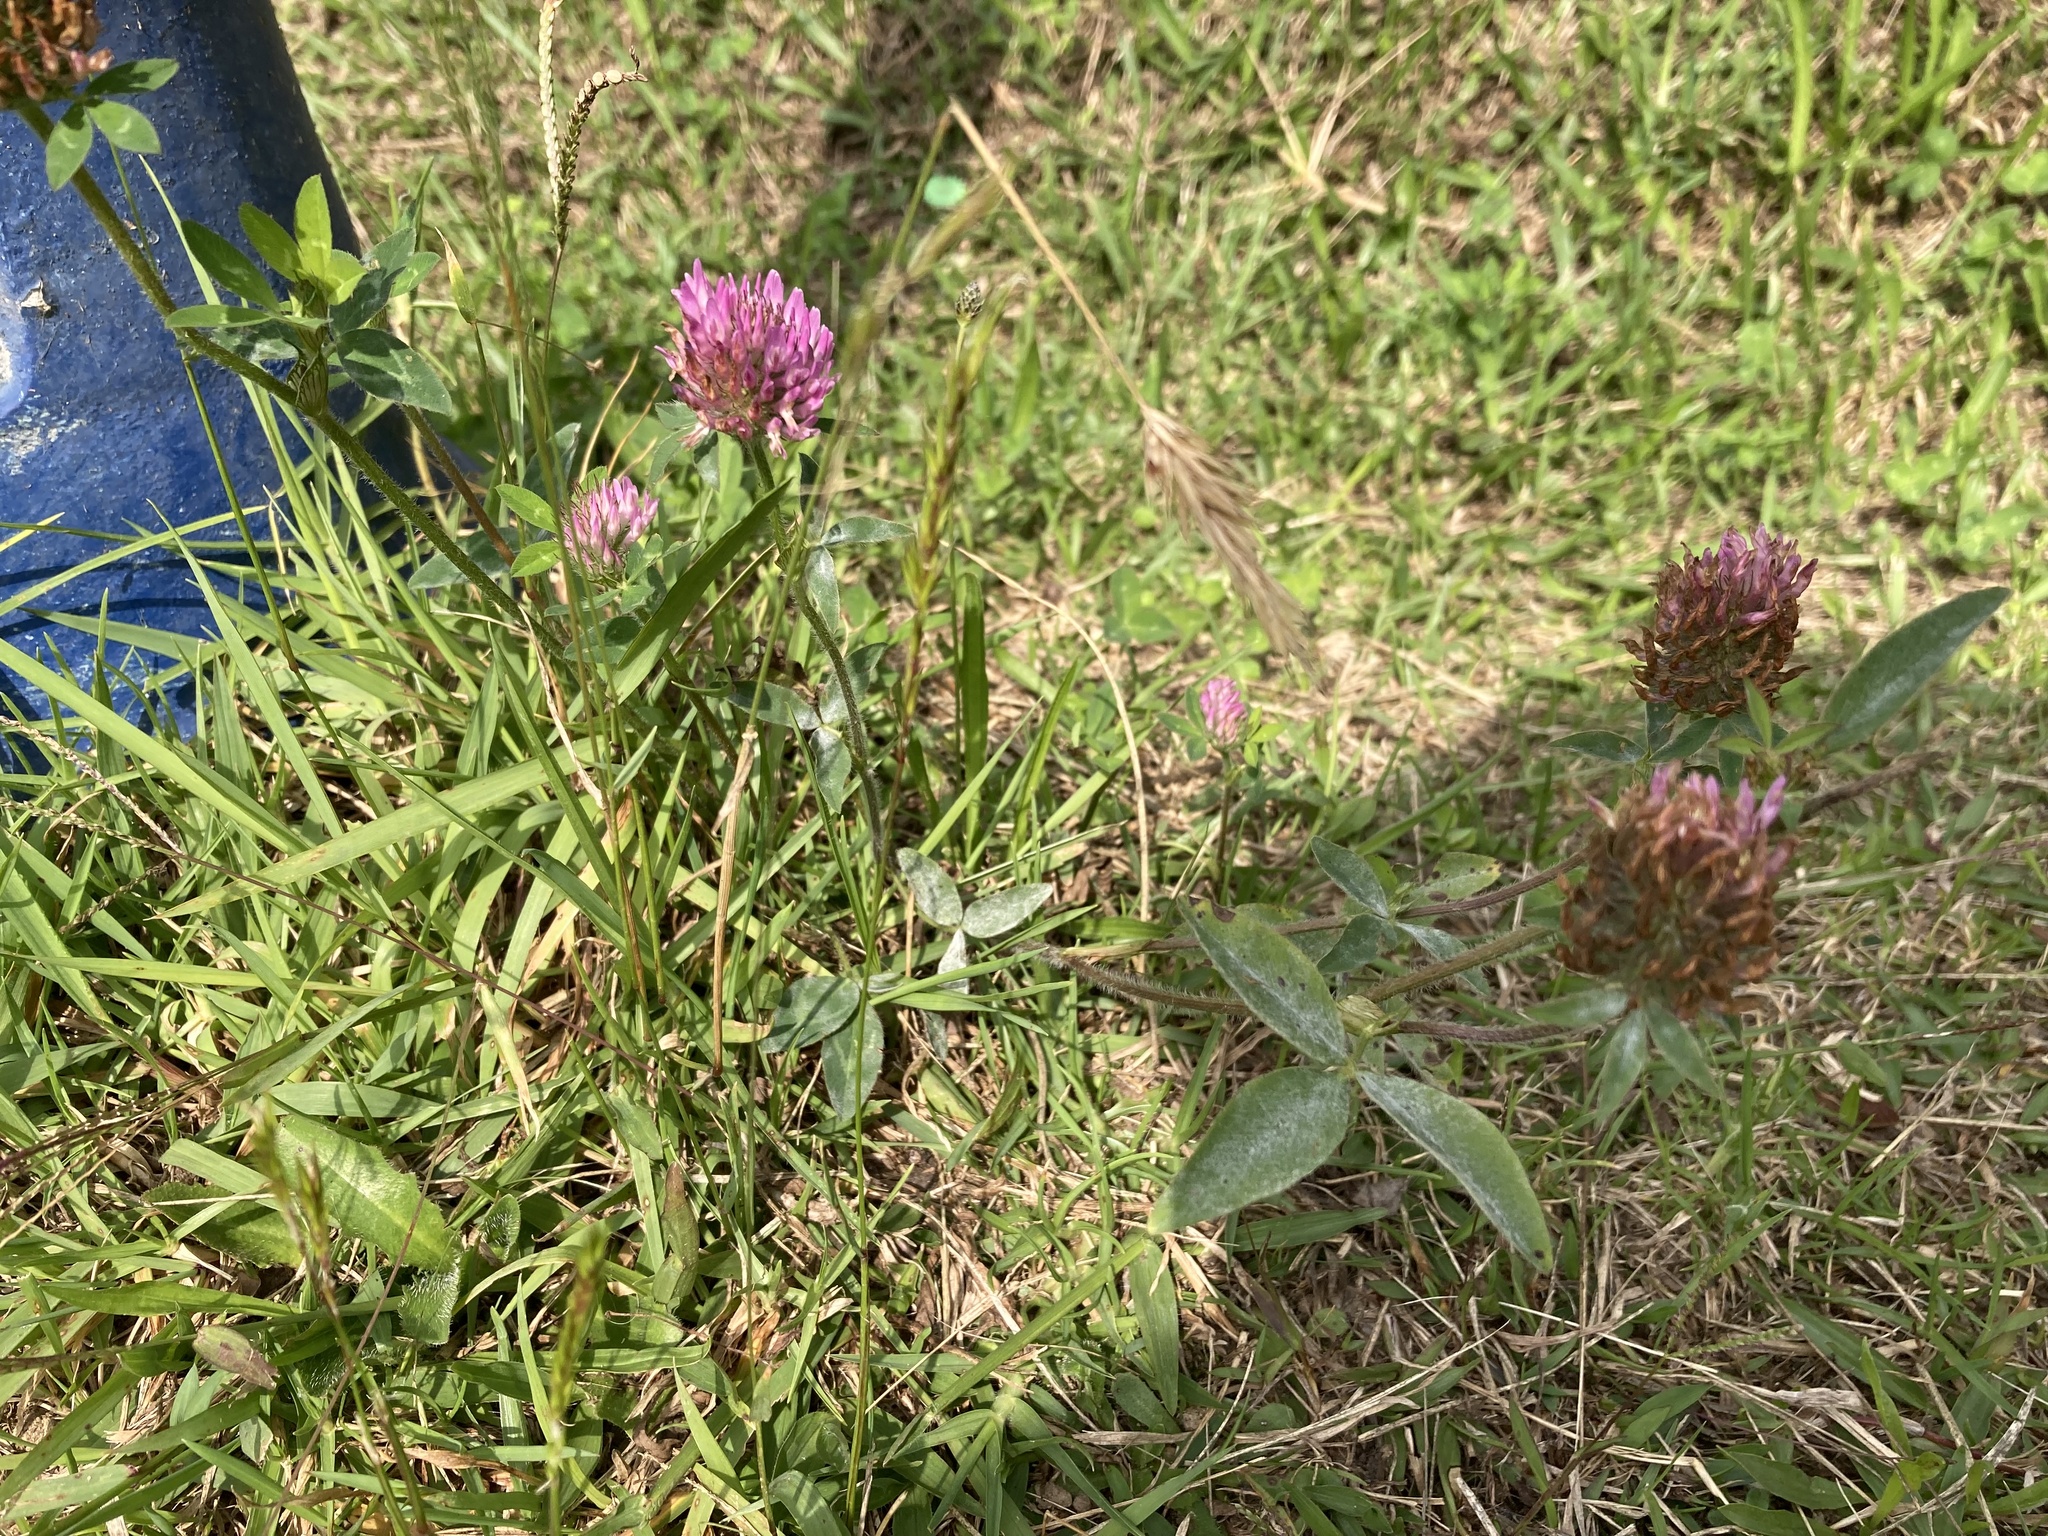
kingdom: Plantae
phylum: Tracheophyta
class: Magnoliopsida
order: Fabales
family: Fabaceae
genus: Trifolium
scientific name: Trifolium pratense
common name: Red clover
